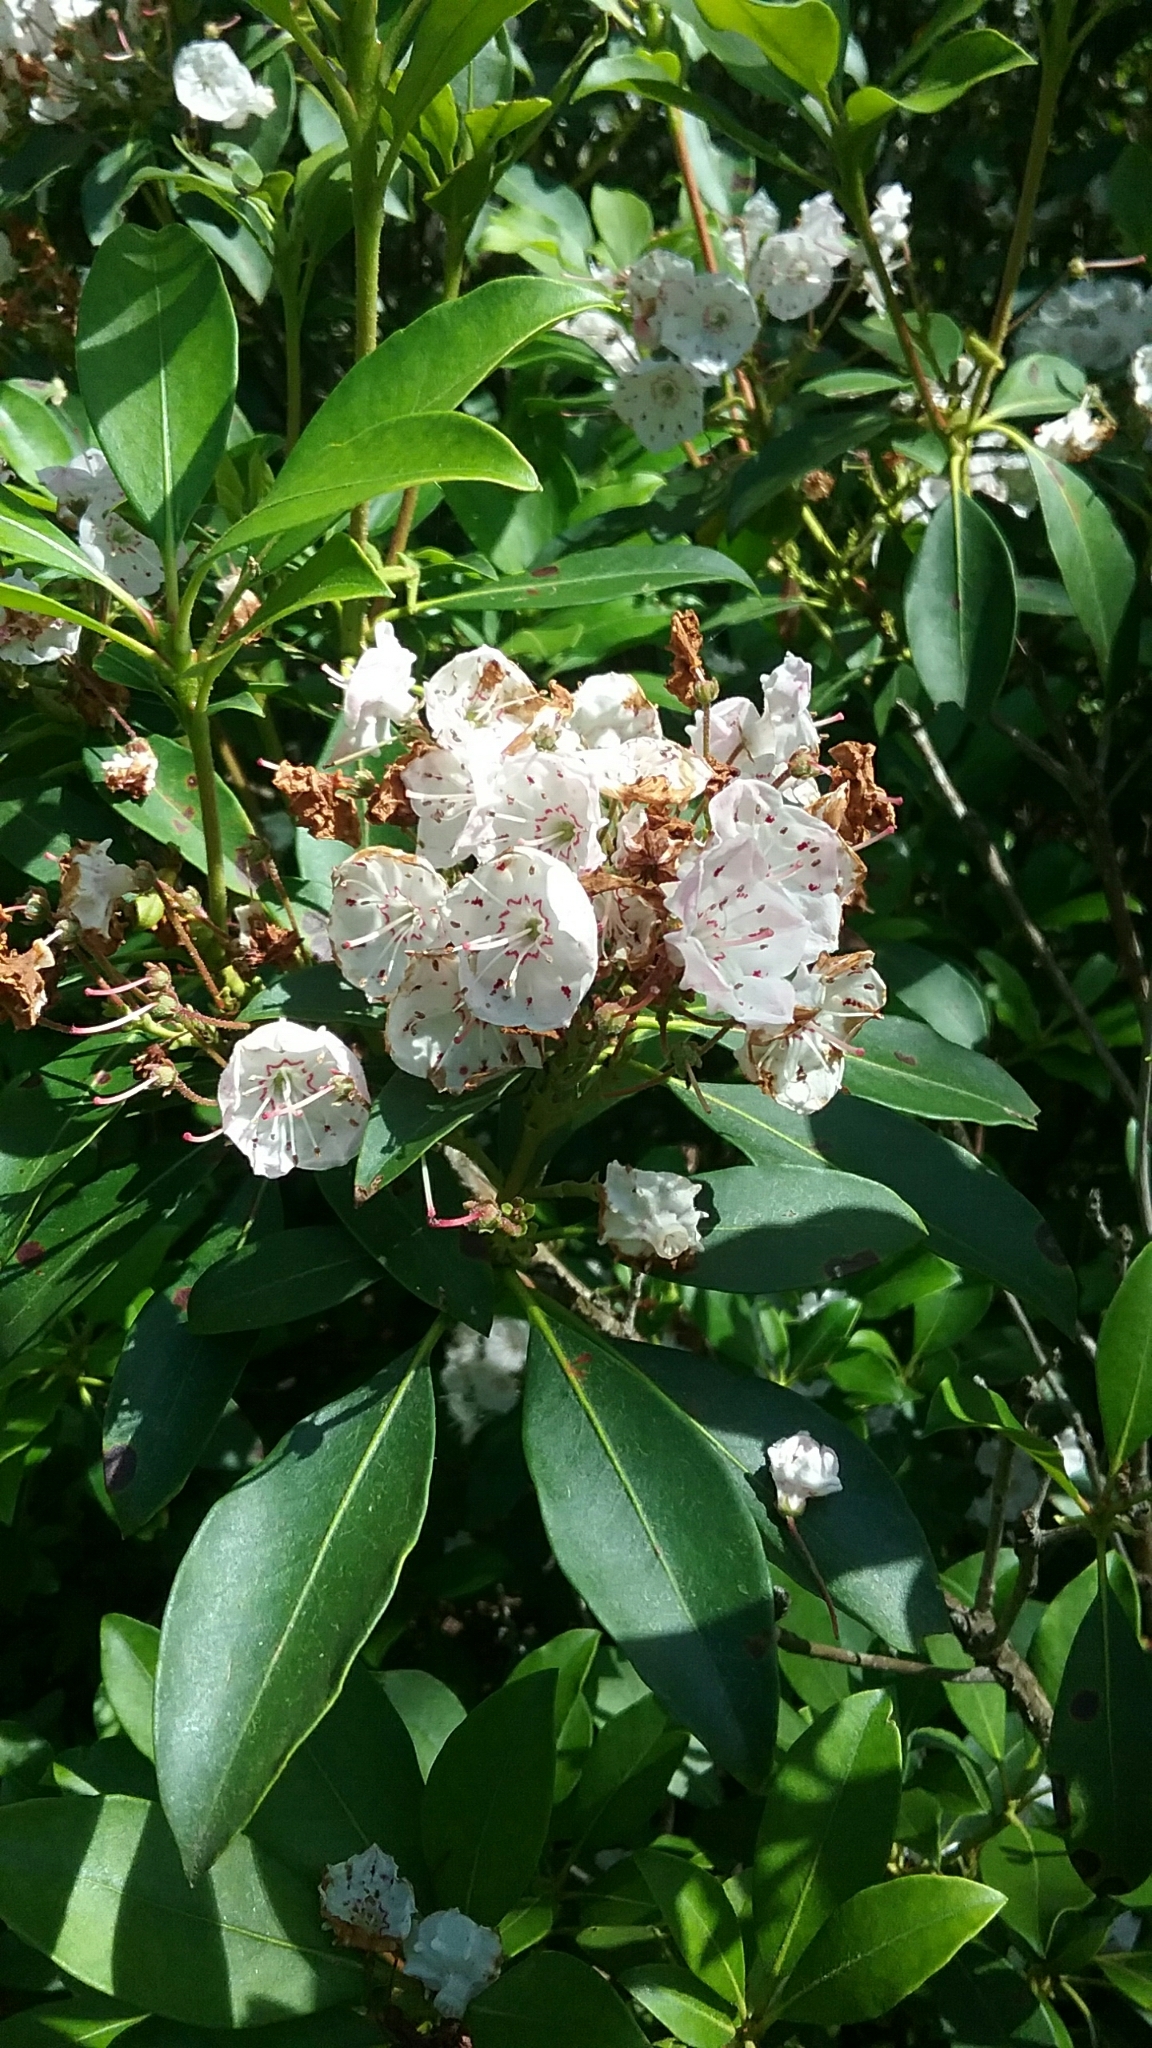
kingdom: Plantae
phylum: Tracheophyta
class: Magnoliopsida
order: Ericales
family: Ericaceae
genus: Kalmia
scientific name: Kalmia latifolia
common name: Mountain-laurel
